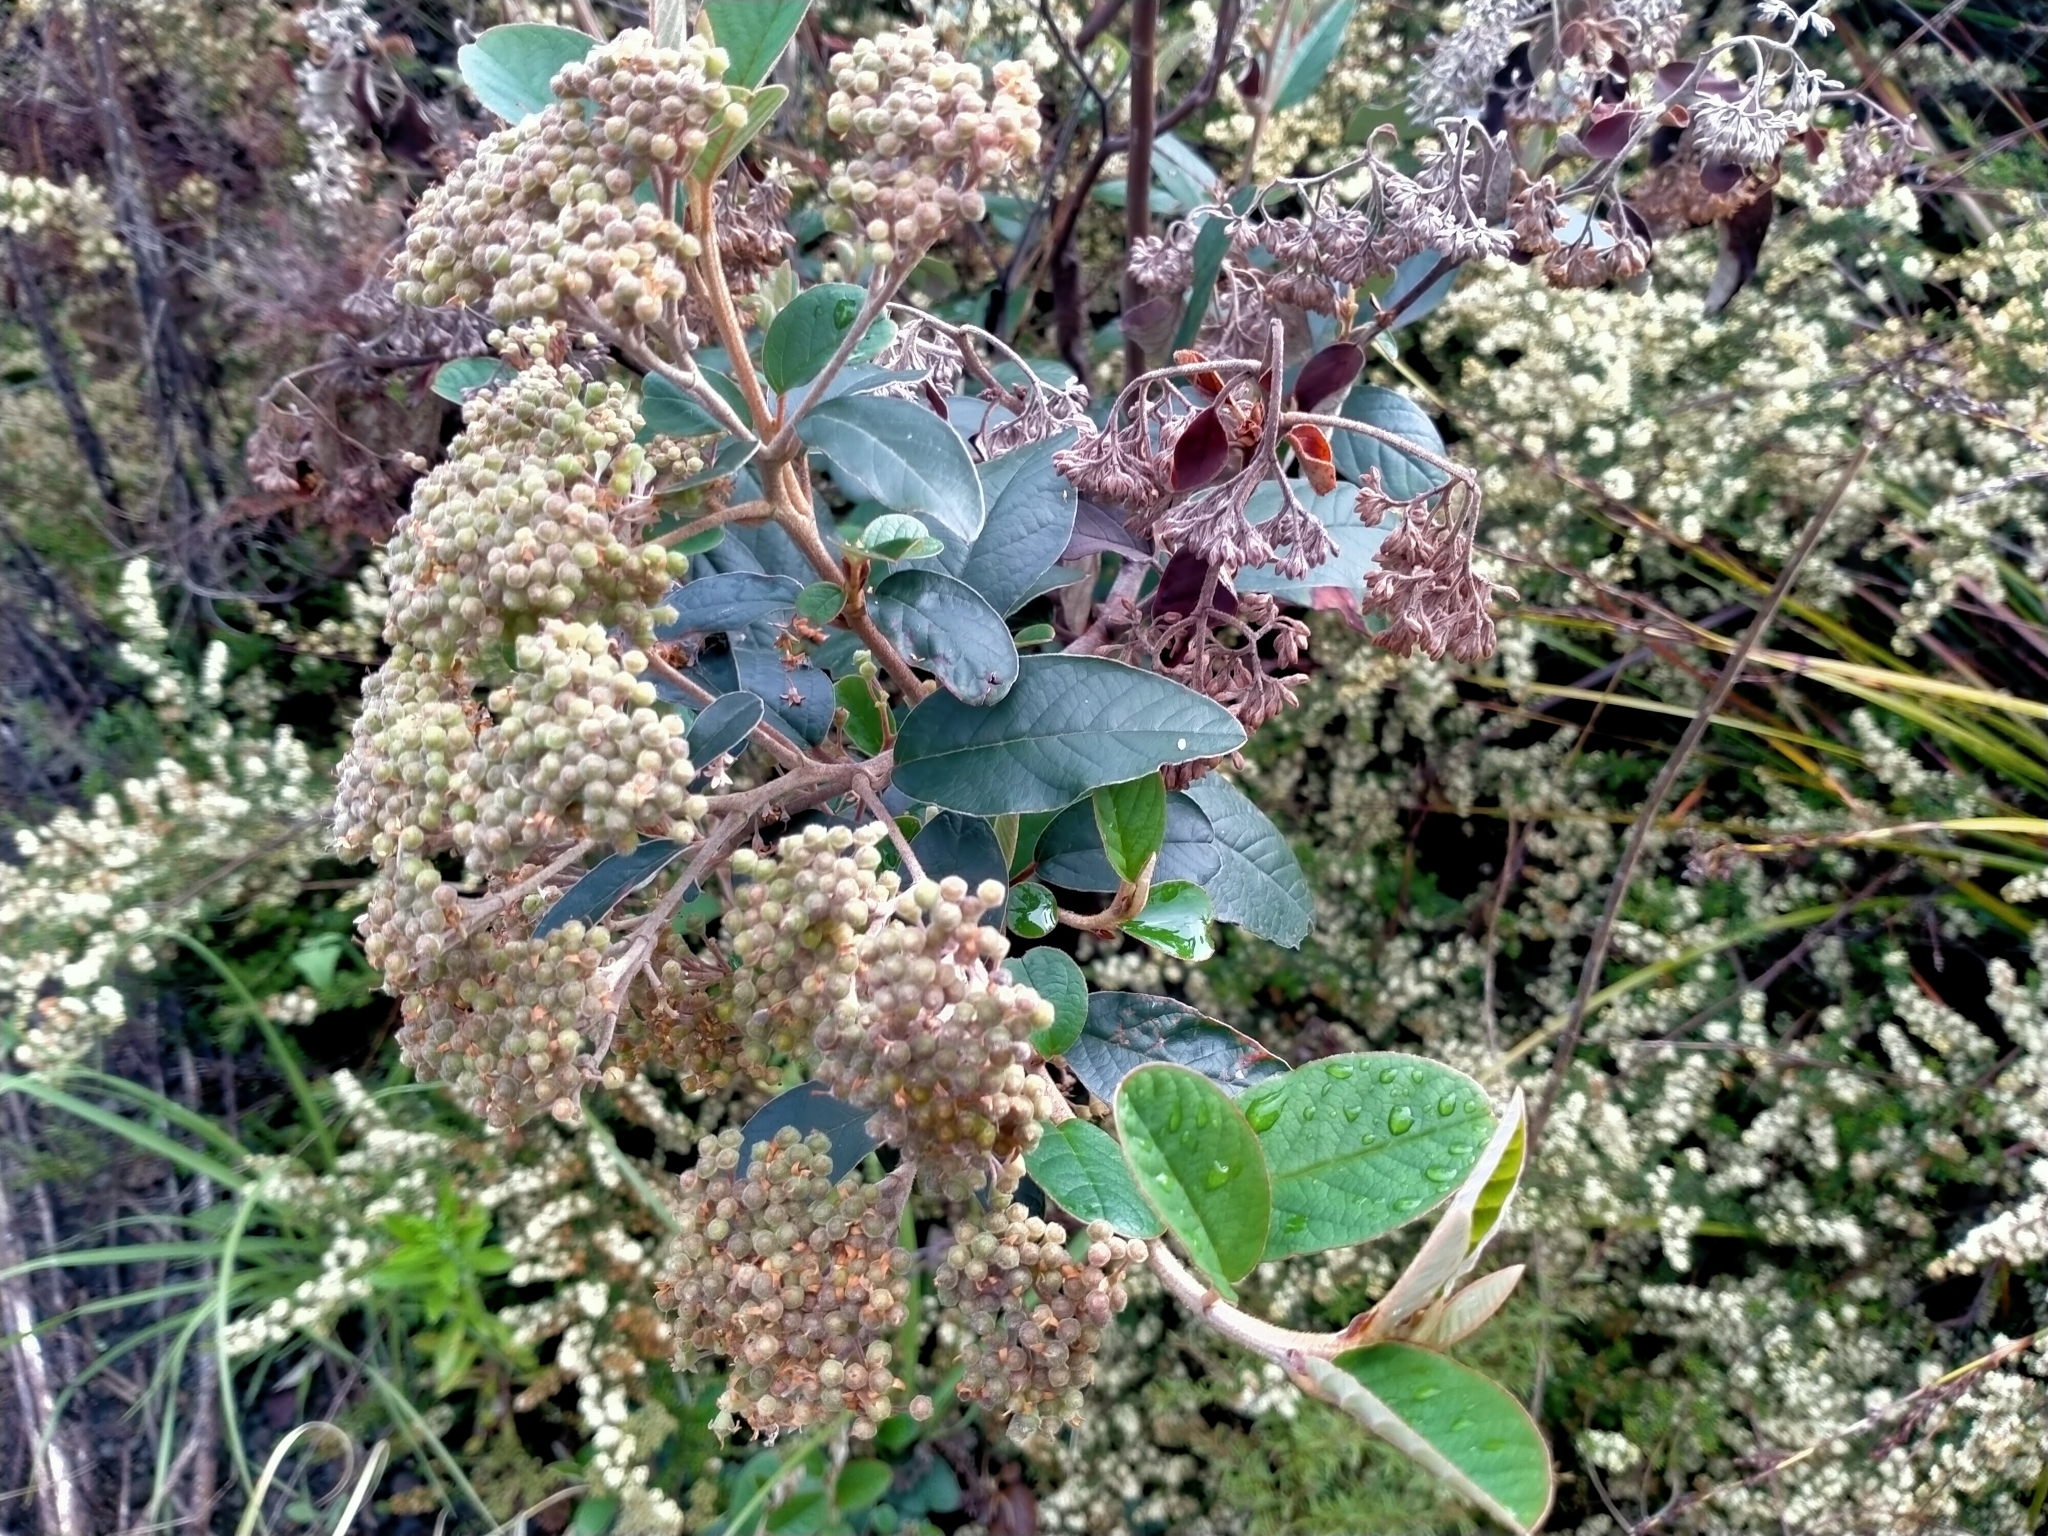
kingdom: Plantae
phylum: Tracheophyta
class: Magnoliopsida
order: Rosales
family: Rhamnaceae
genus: Pomaderris
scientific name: Pomaderris kumeraho
